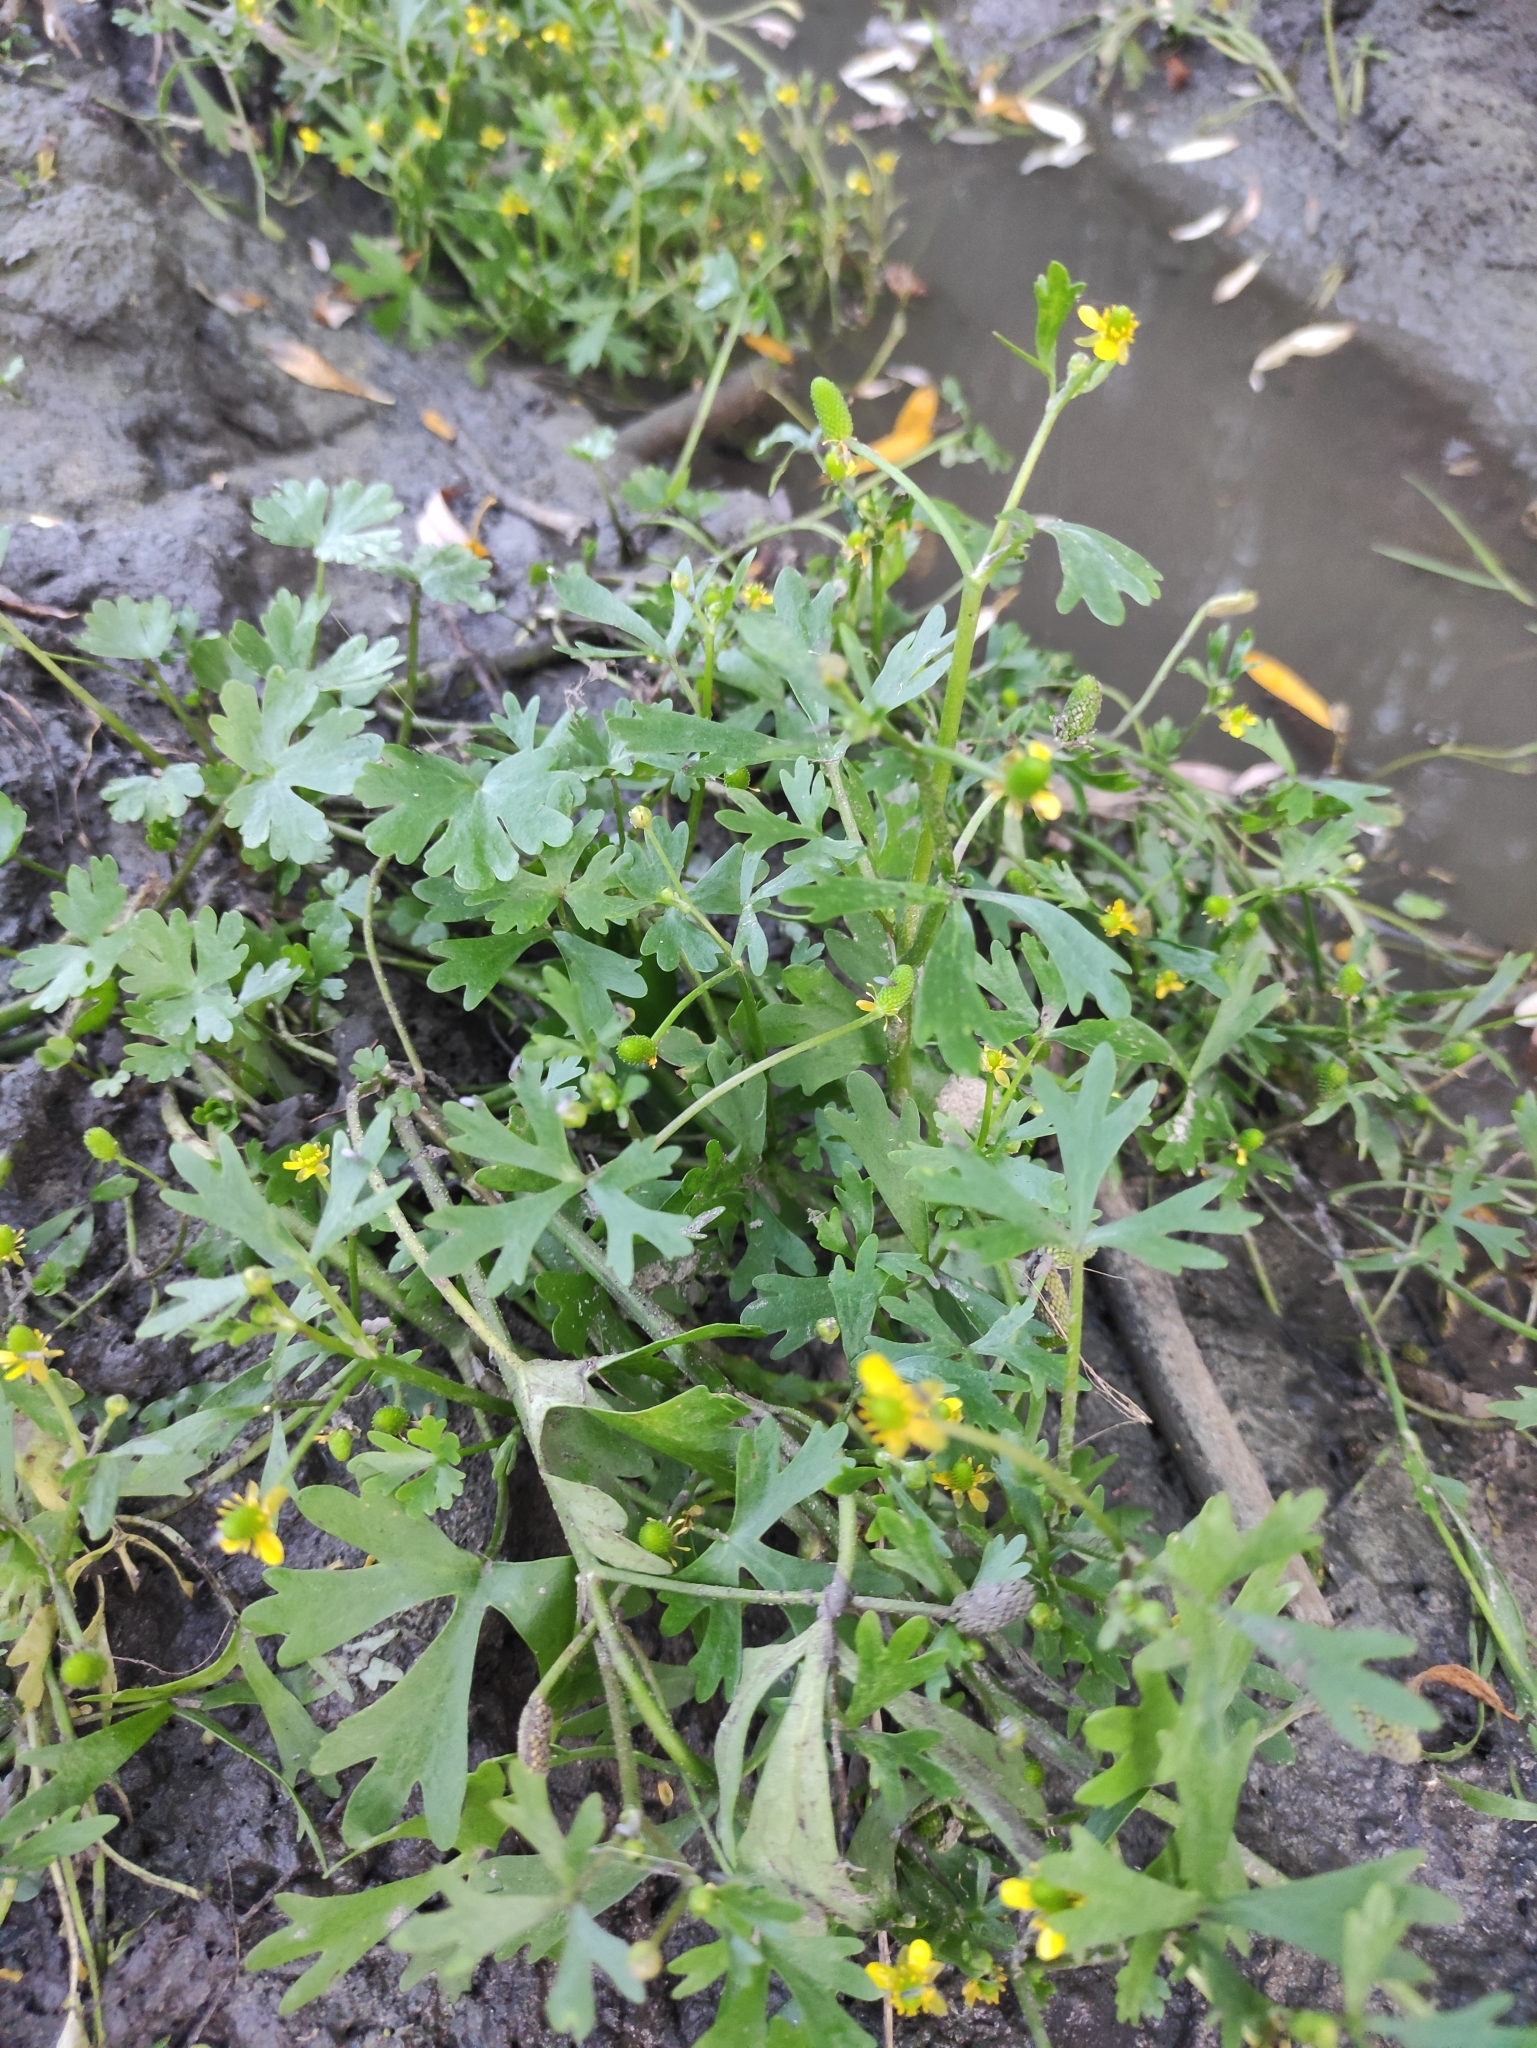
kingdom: Plantae
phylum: Tracheophyta
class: Magnoliopsida
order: Ranunculales
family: Ranunculaceae
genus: Ranunculus
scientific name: Ranunculus sceleratus
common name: Celery-leaved buttercup
